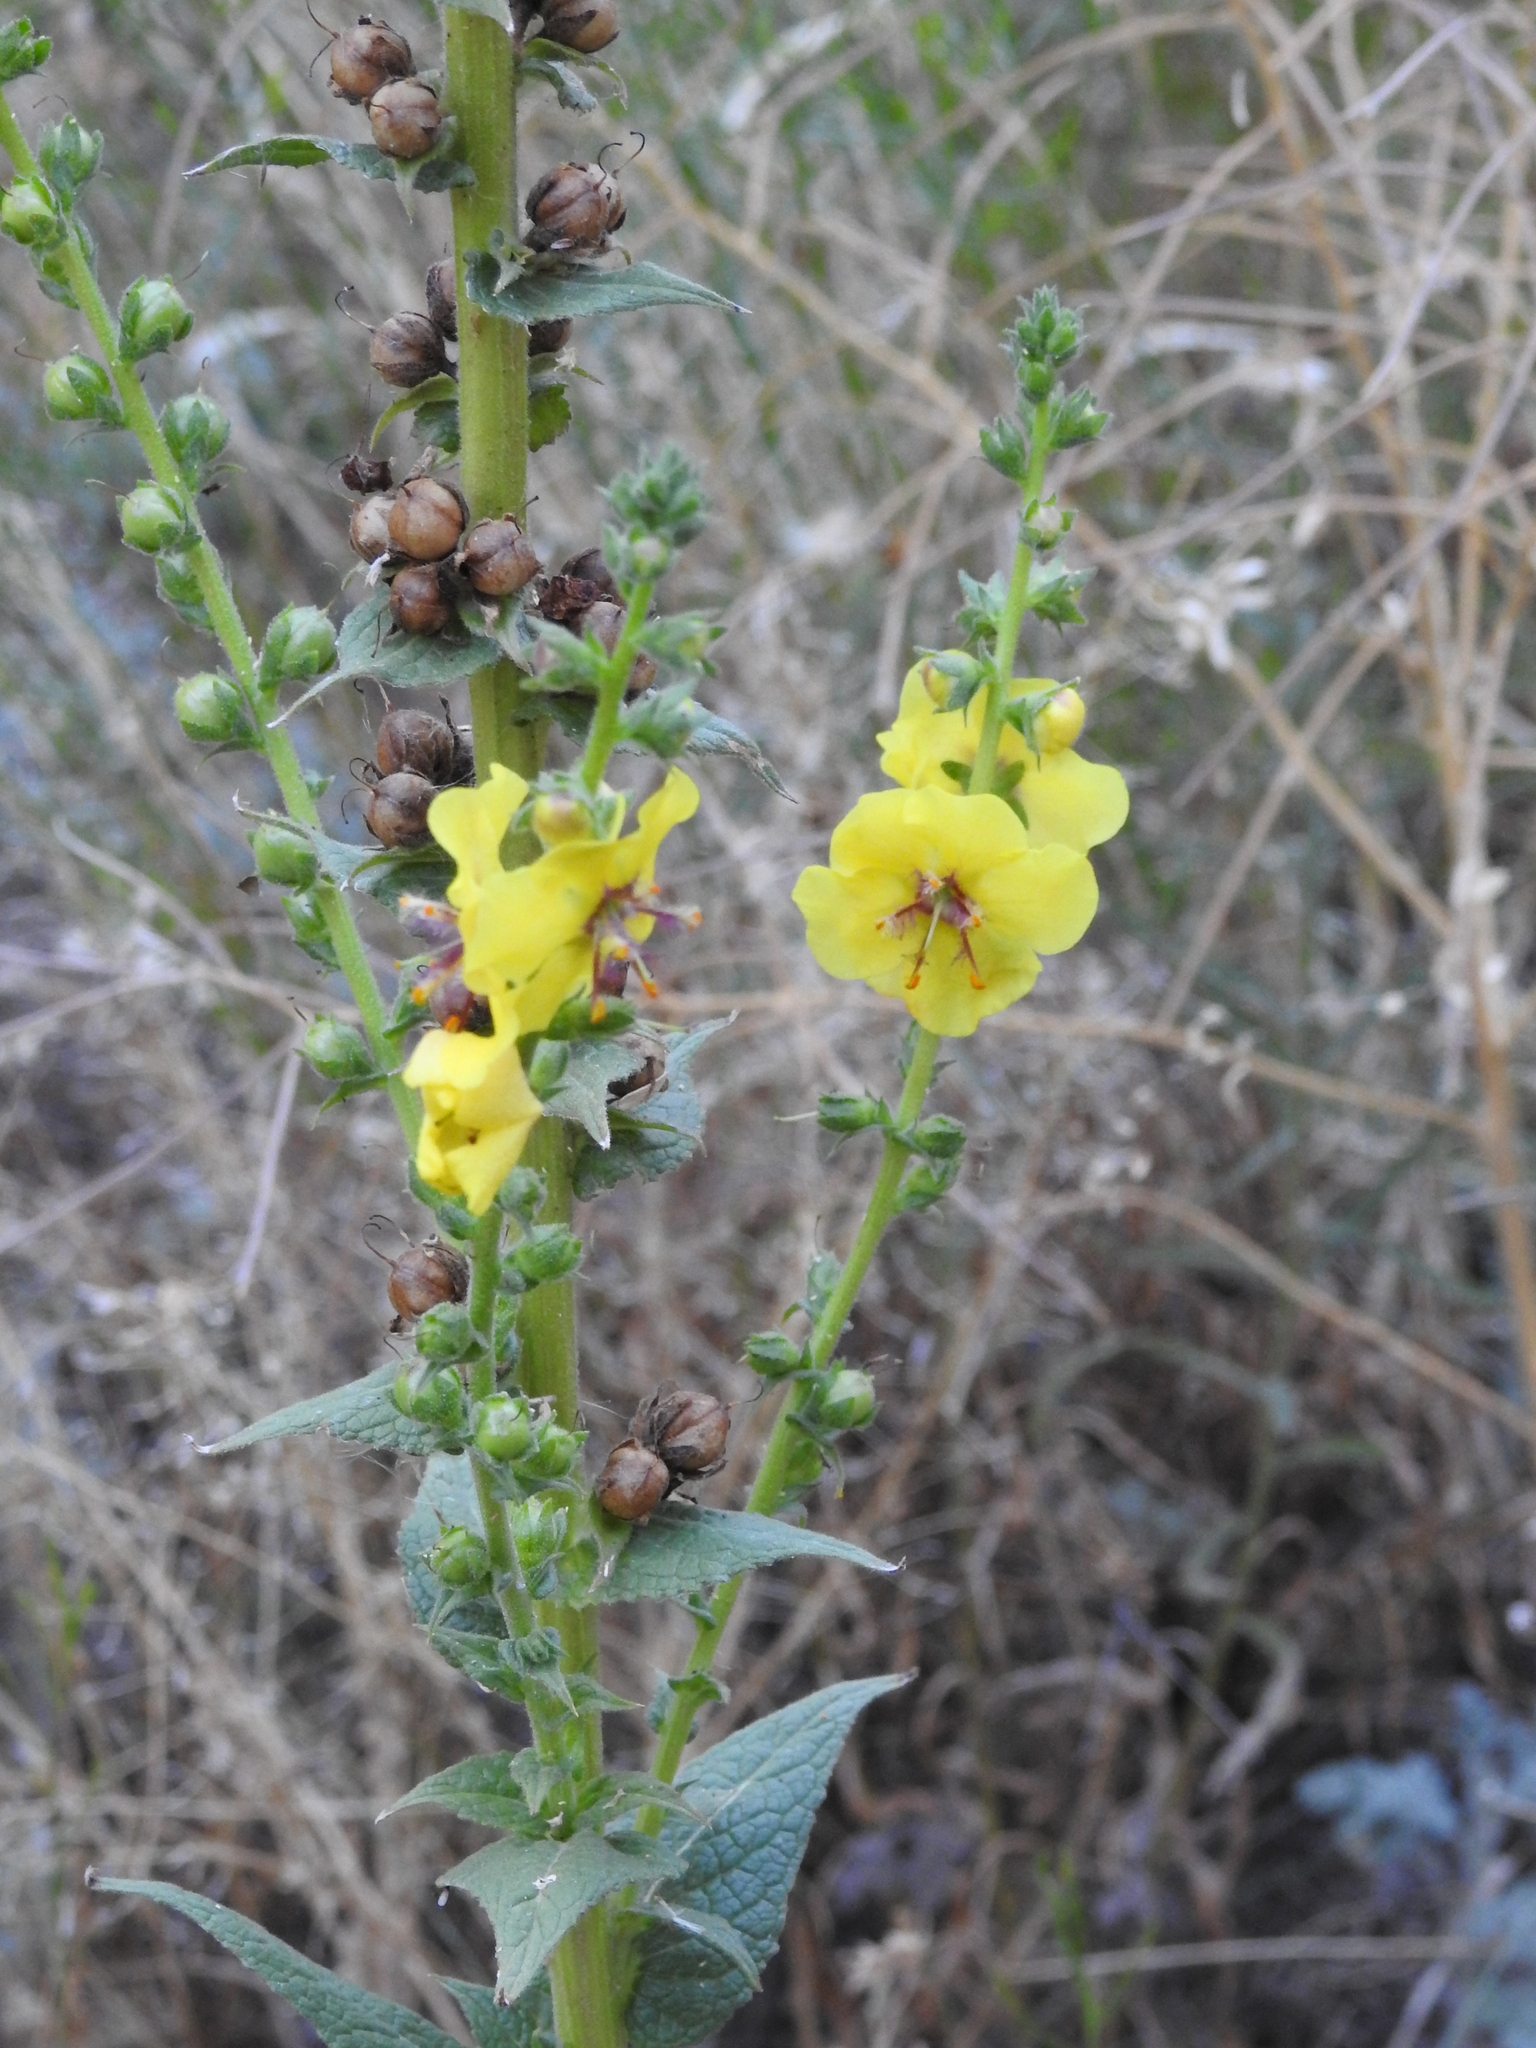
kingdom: Plantae
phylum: Tracheophyta
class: Magnoliopsida
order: Lamiales
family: Scrophulariaceae
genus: Verbascum
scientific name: Verbascum virgatum
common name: Twiggy mullein
